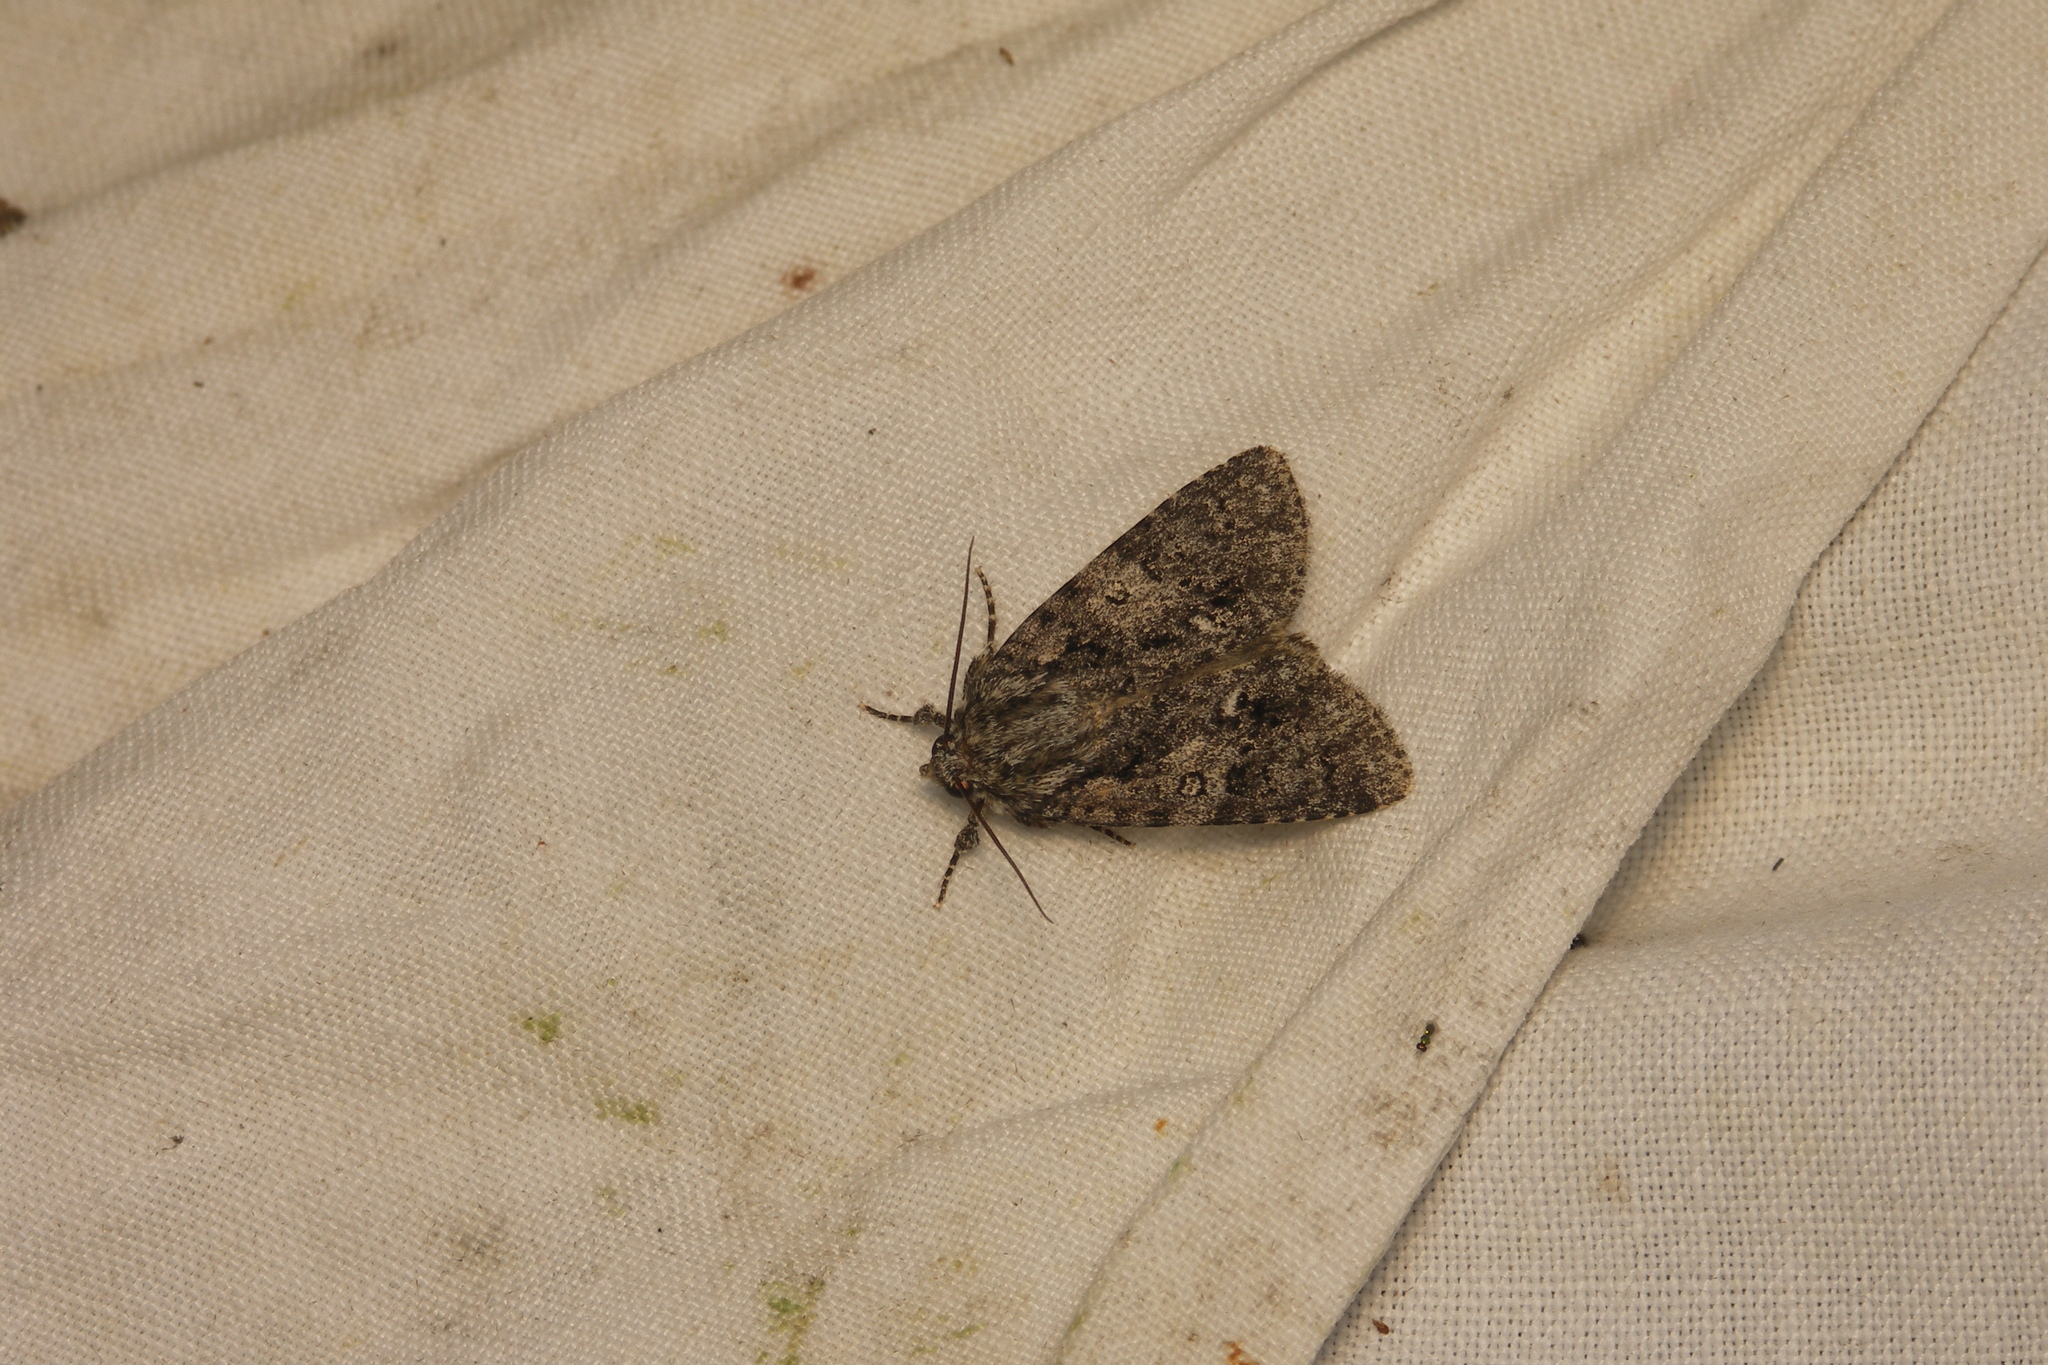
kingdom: Animalia
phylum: Arthropoda
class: Insecta
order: Lepidoptera
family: Noctuidae
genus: Acronicta
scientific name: Acronicta rumicis
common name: Knot grass
